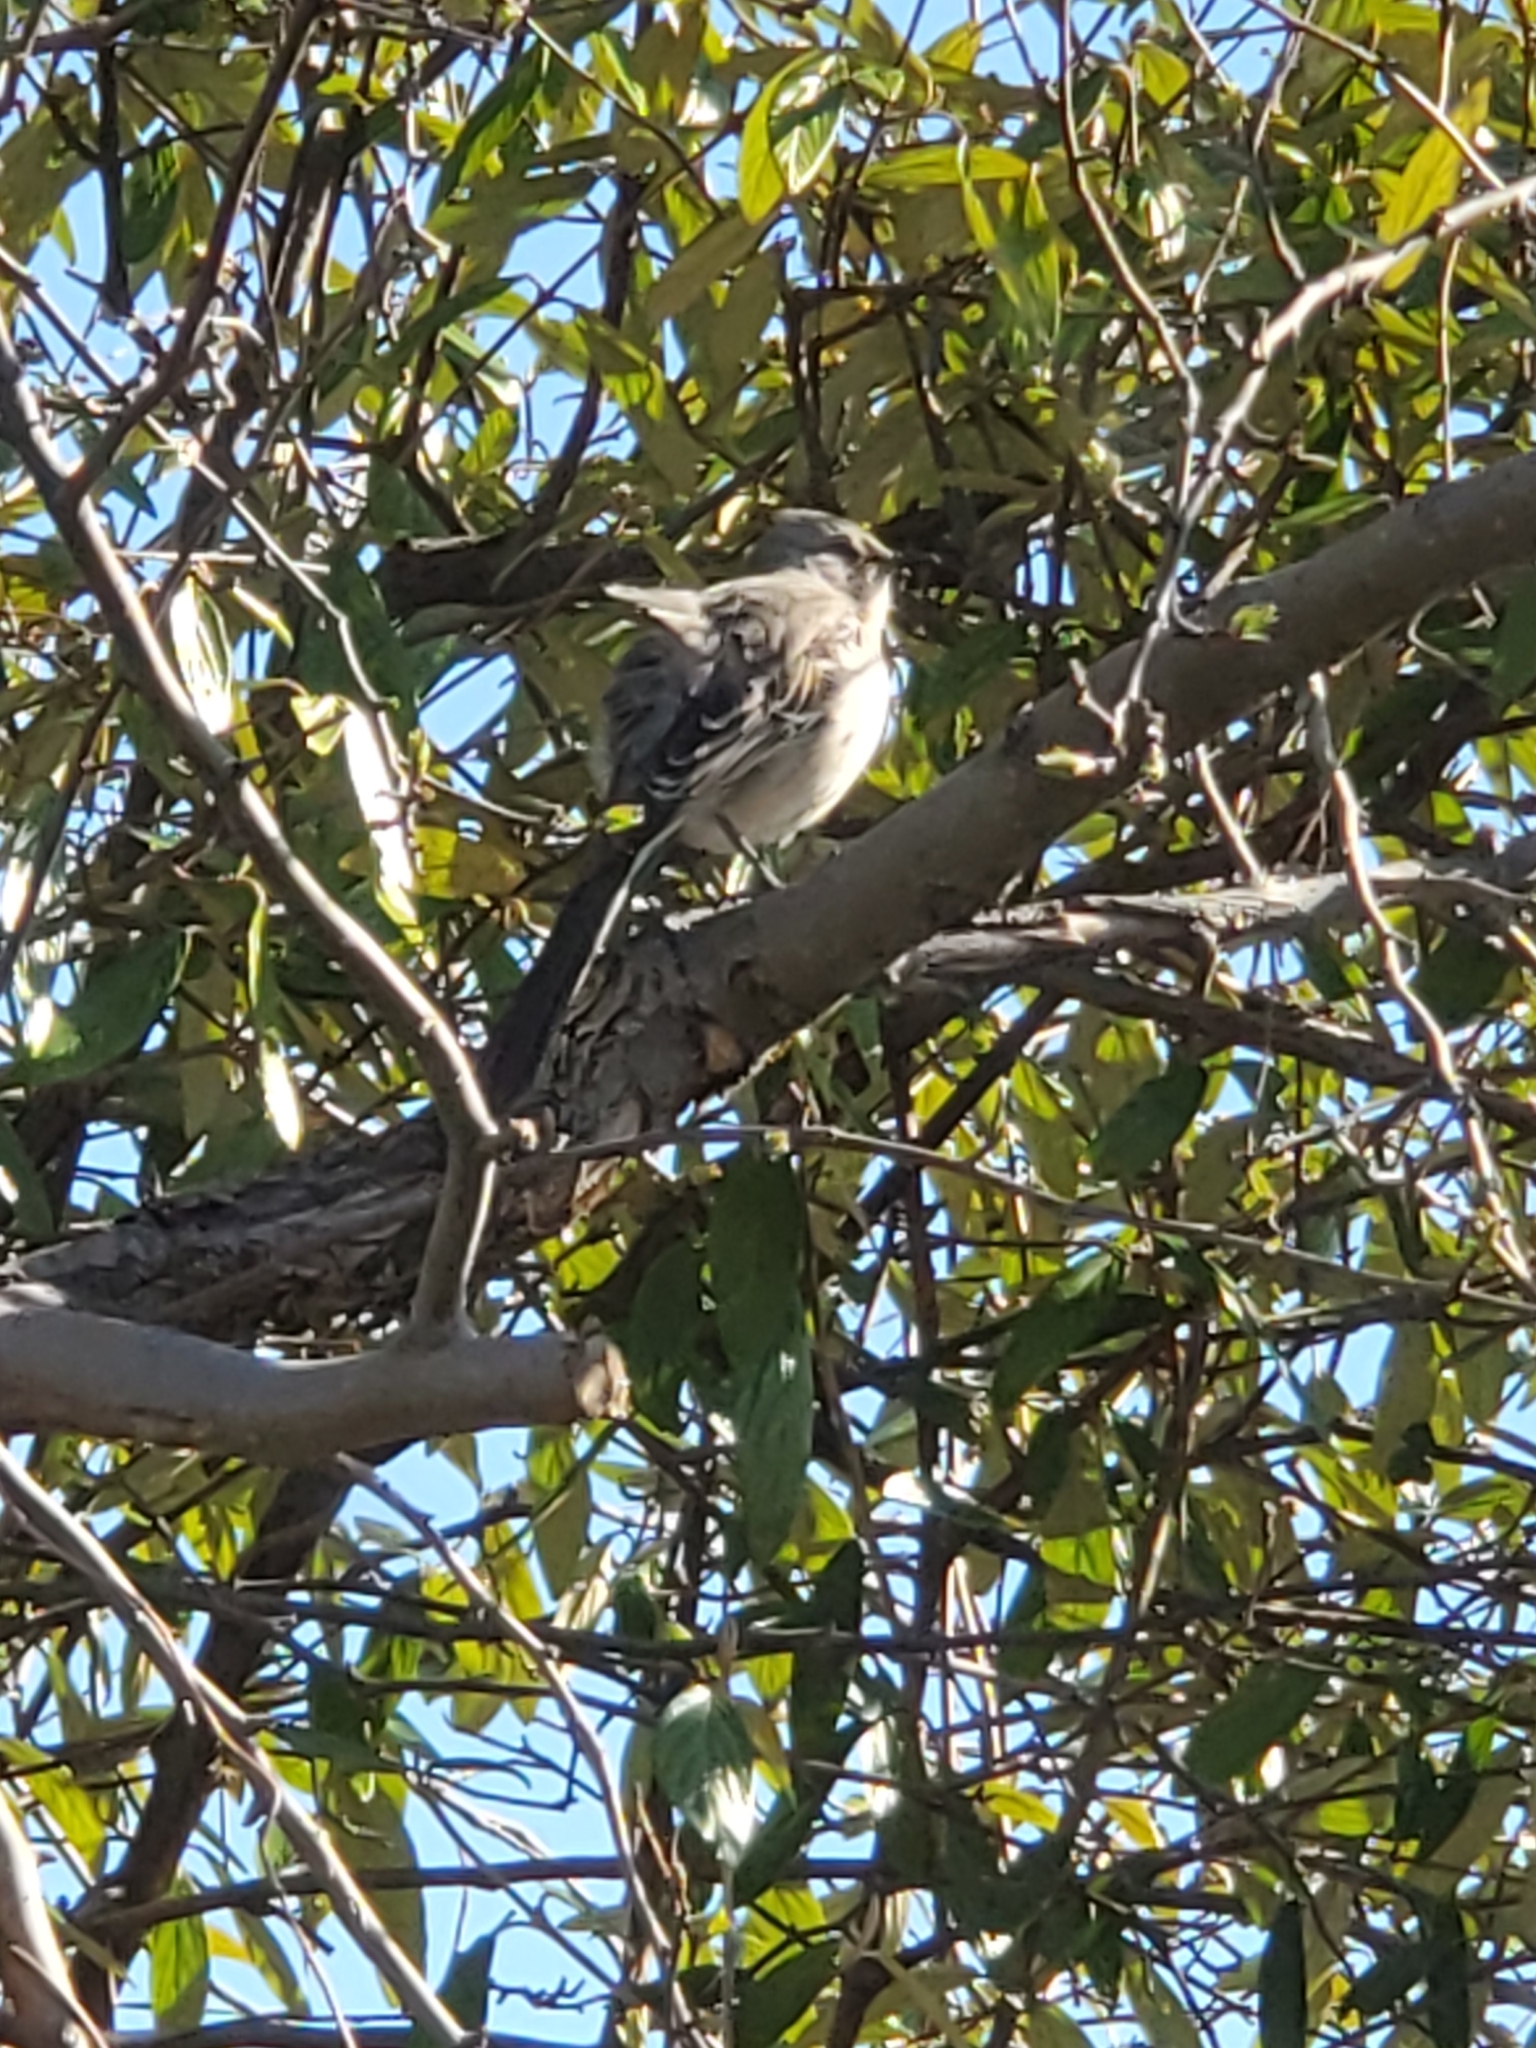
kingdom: Animalia
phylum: Chordata
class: Aves
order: Passeriformes
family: Mimidae
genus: Mimus
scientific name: Mimus polyglottos
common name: Northern mockingbird
